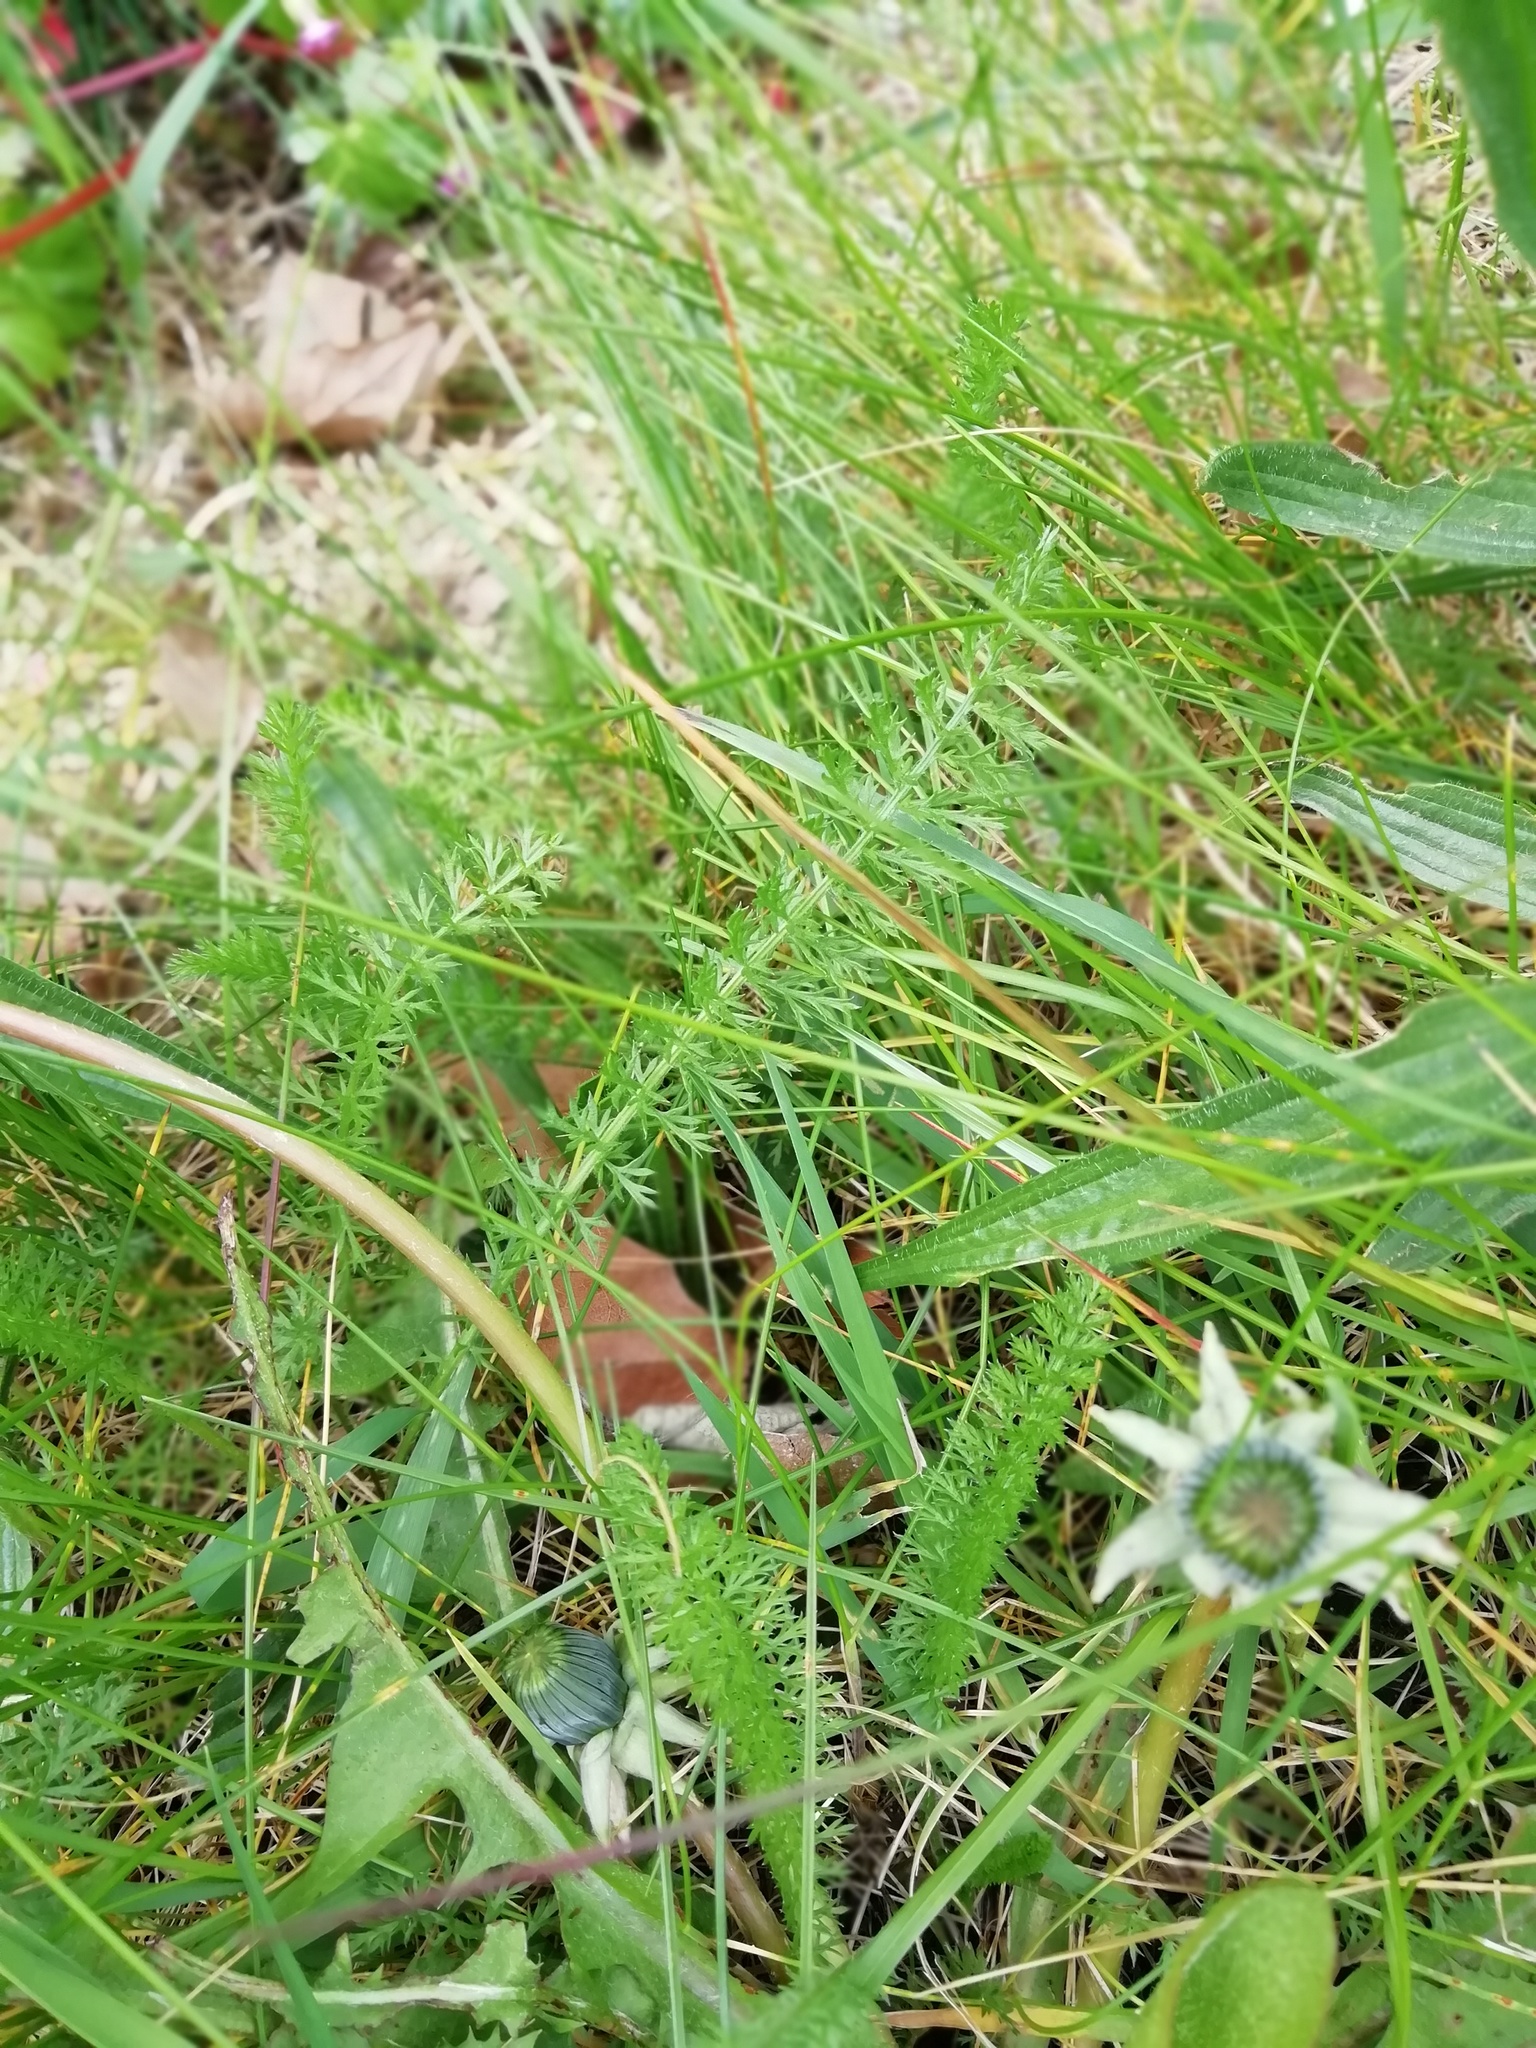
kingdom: Plantae
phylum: Tracheophyta
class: Magnoliopsida
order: Asterales
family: Asteraceae
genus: Achillea
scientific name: Achillea millefolium
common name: Yarrow
